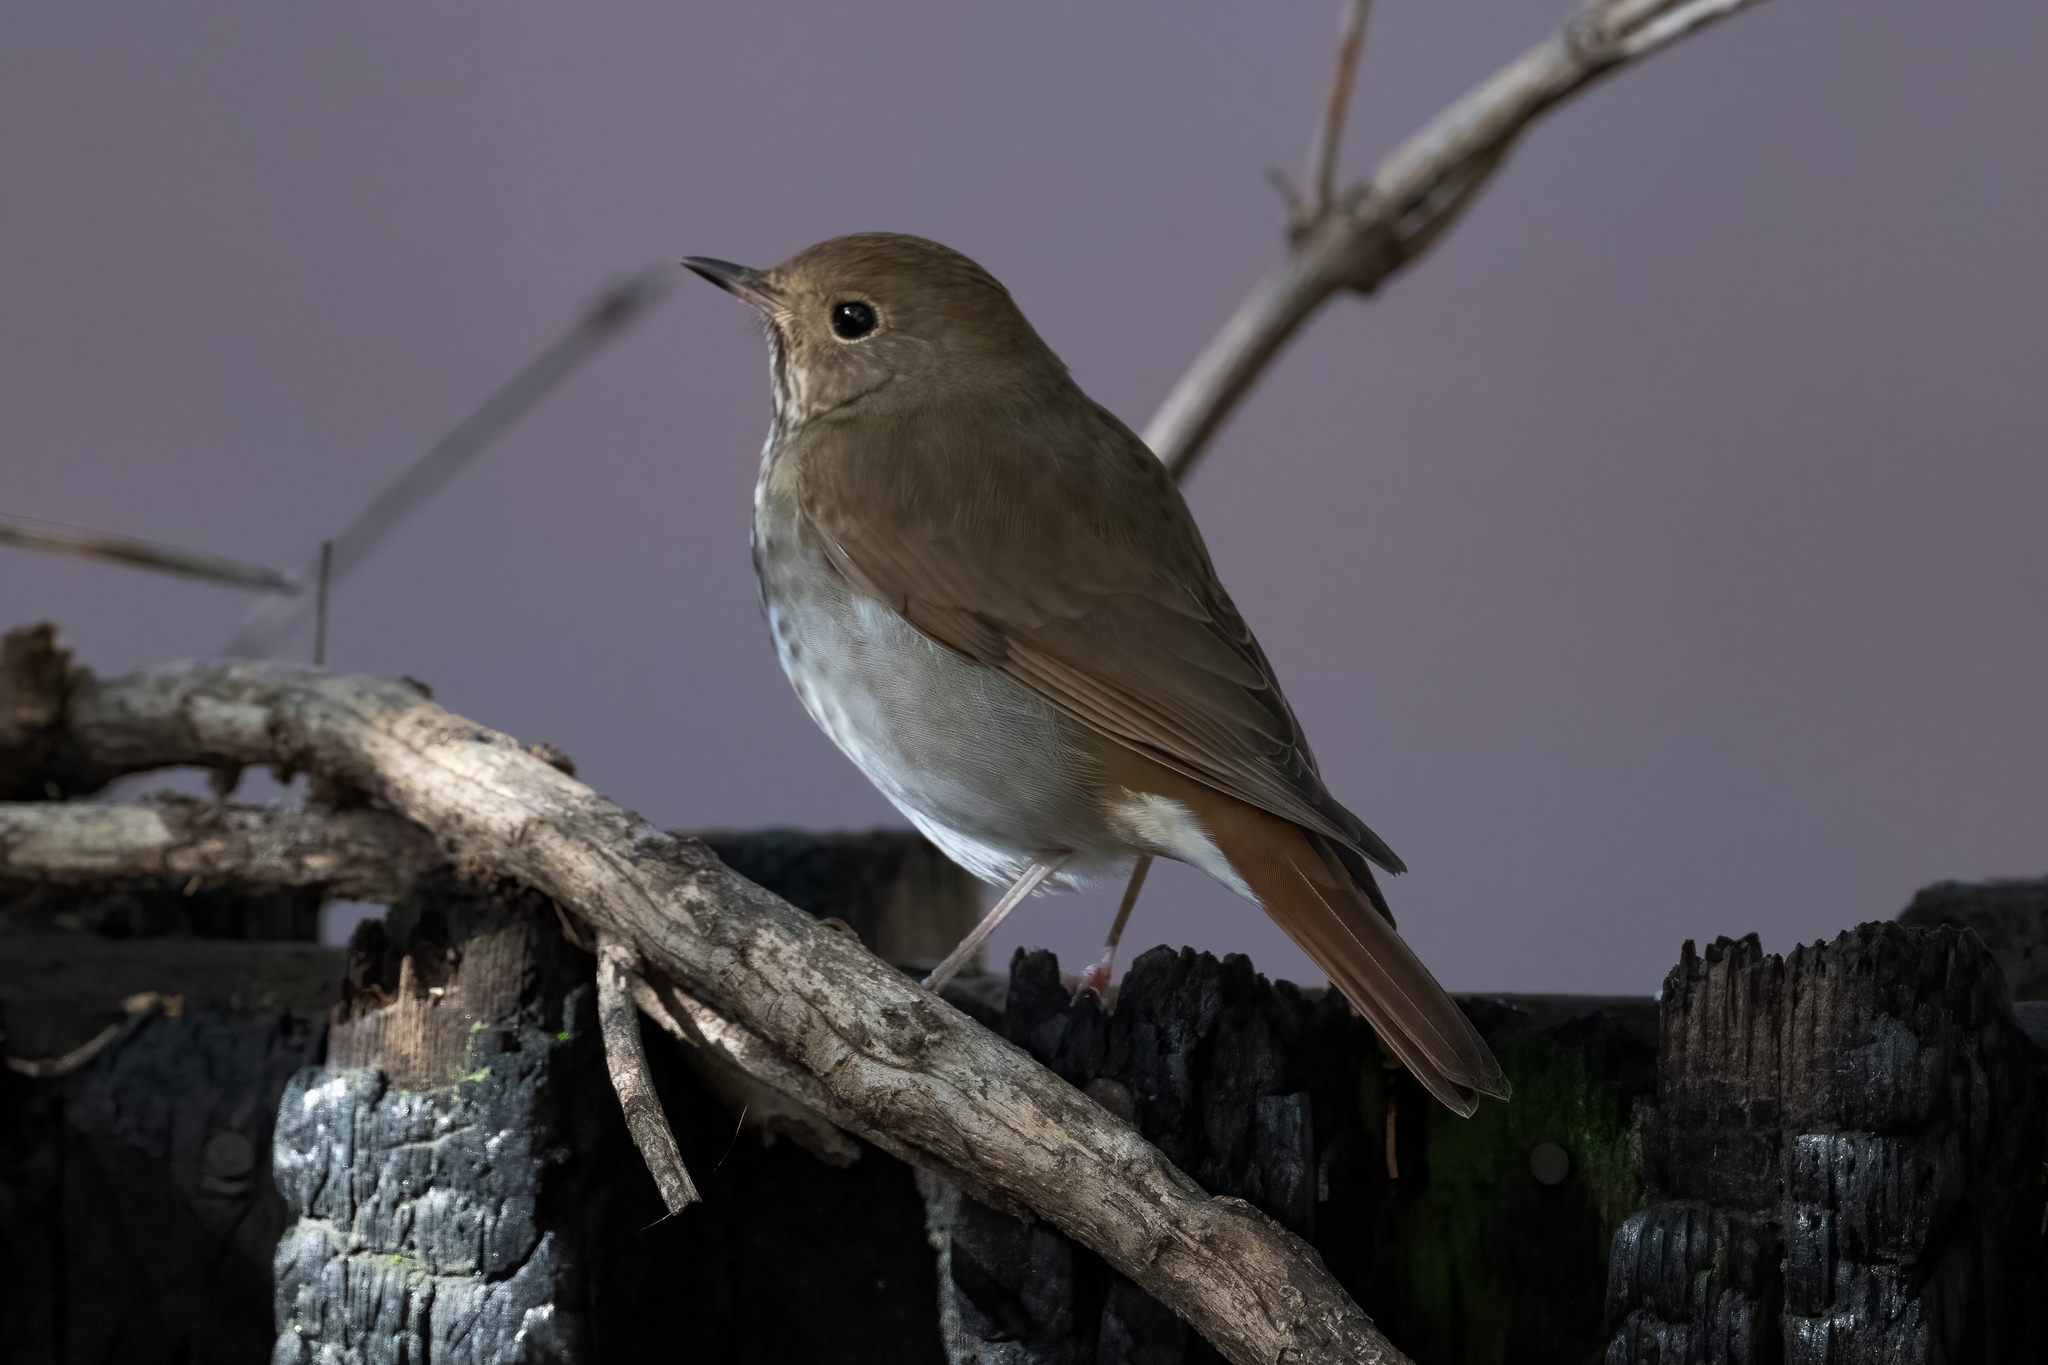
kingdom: Animalia
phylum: Chordata
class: Aves
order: Passeriformes
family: Turdidae
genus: Catharus
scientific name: Catharus guttatus
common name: Hermit thrush
